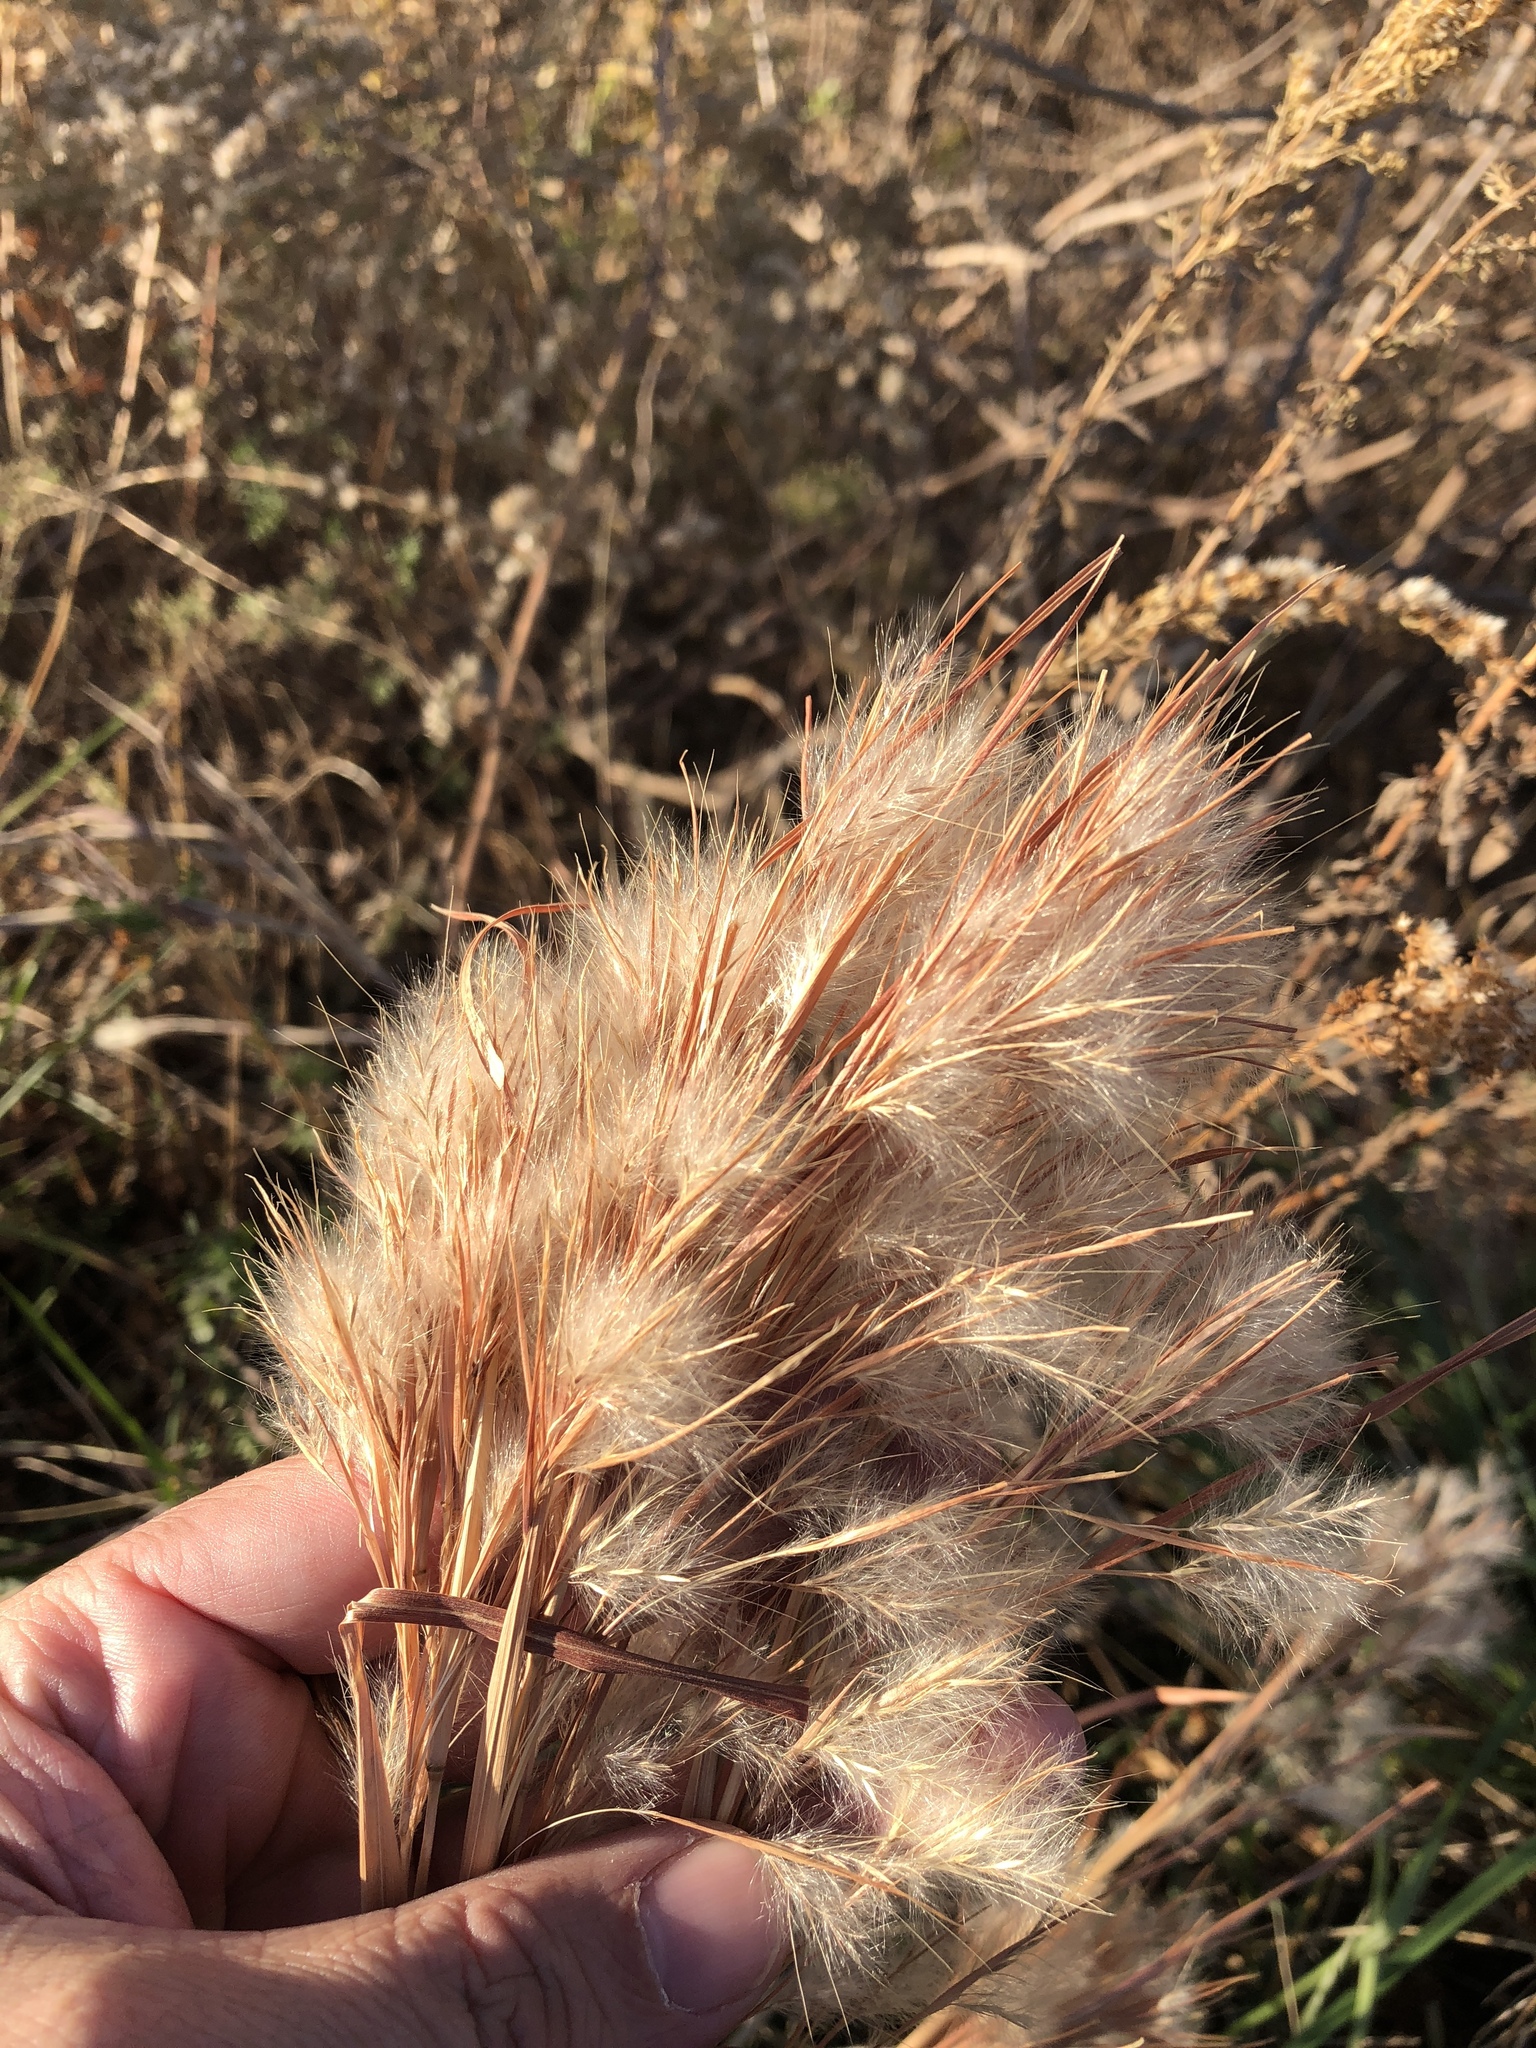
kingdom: Plantae
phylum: Tracheophyta
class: Liliopsida
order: Poales
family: Poaceae
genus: Andropogon
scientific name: Andropogon tenuispatheus
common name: Bushy bluestem
